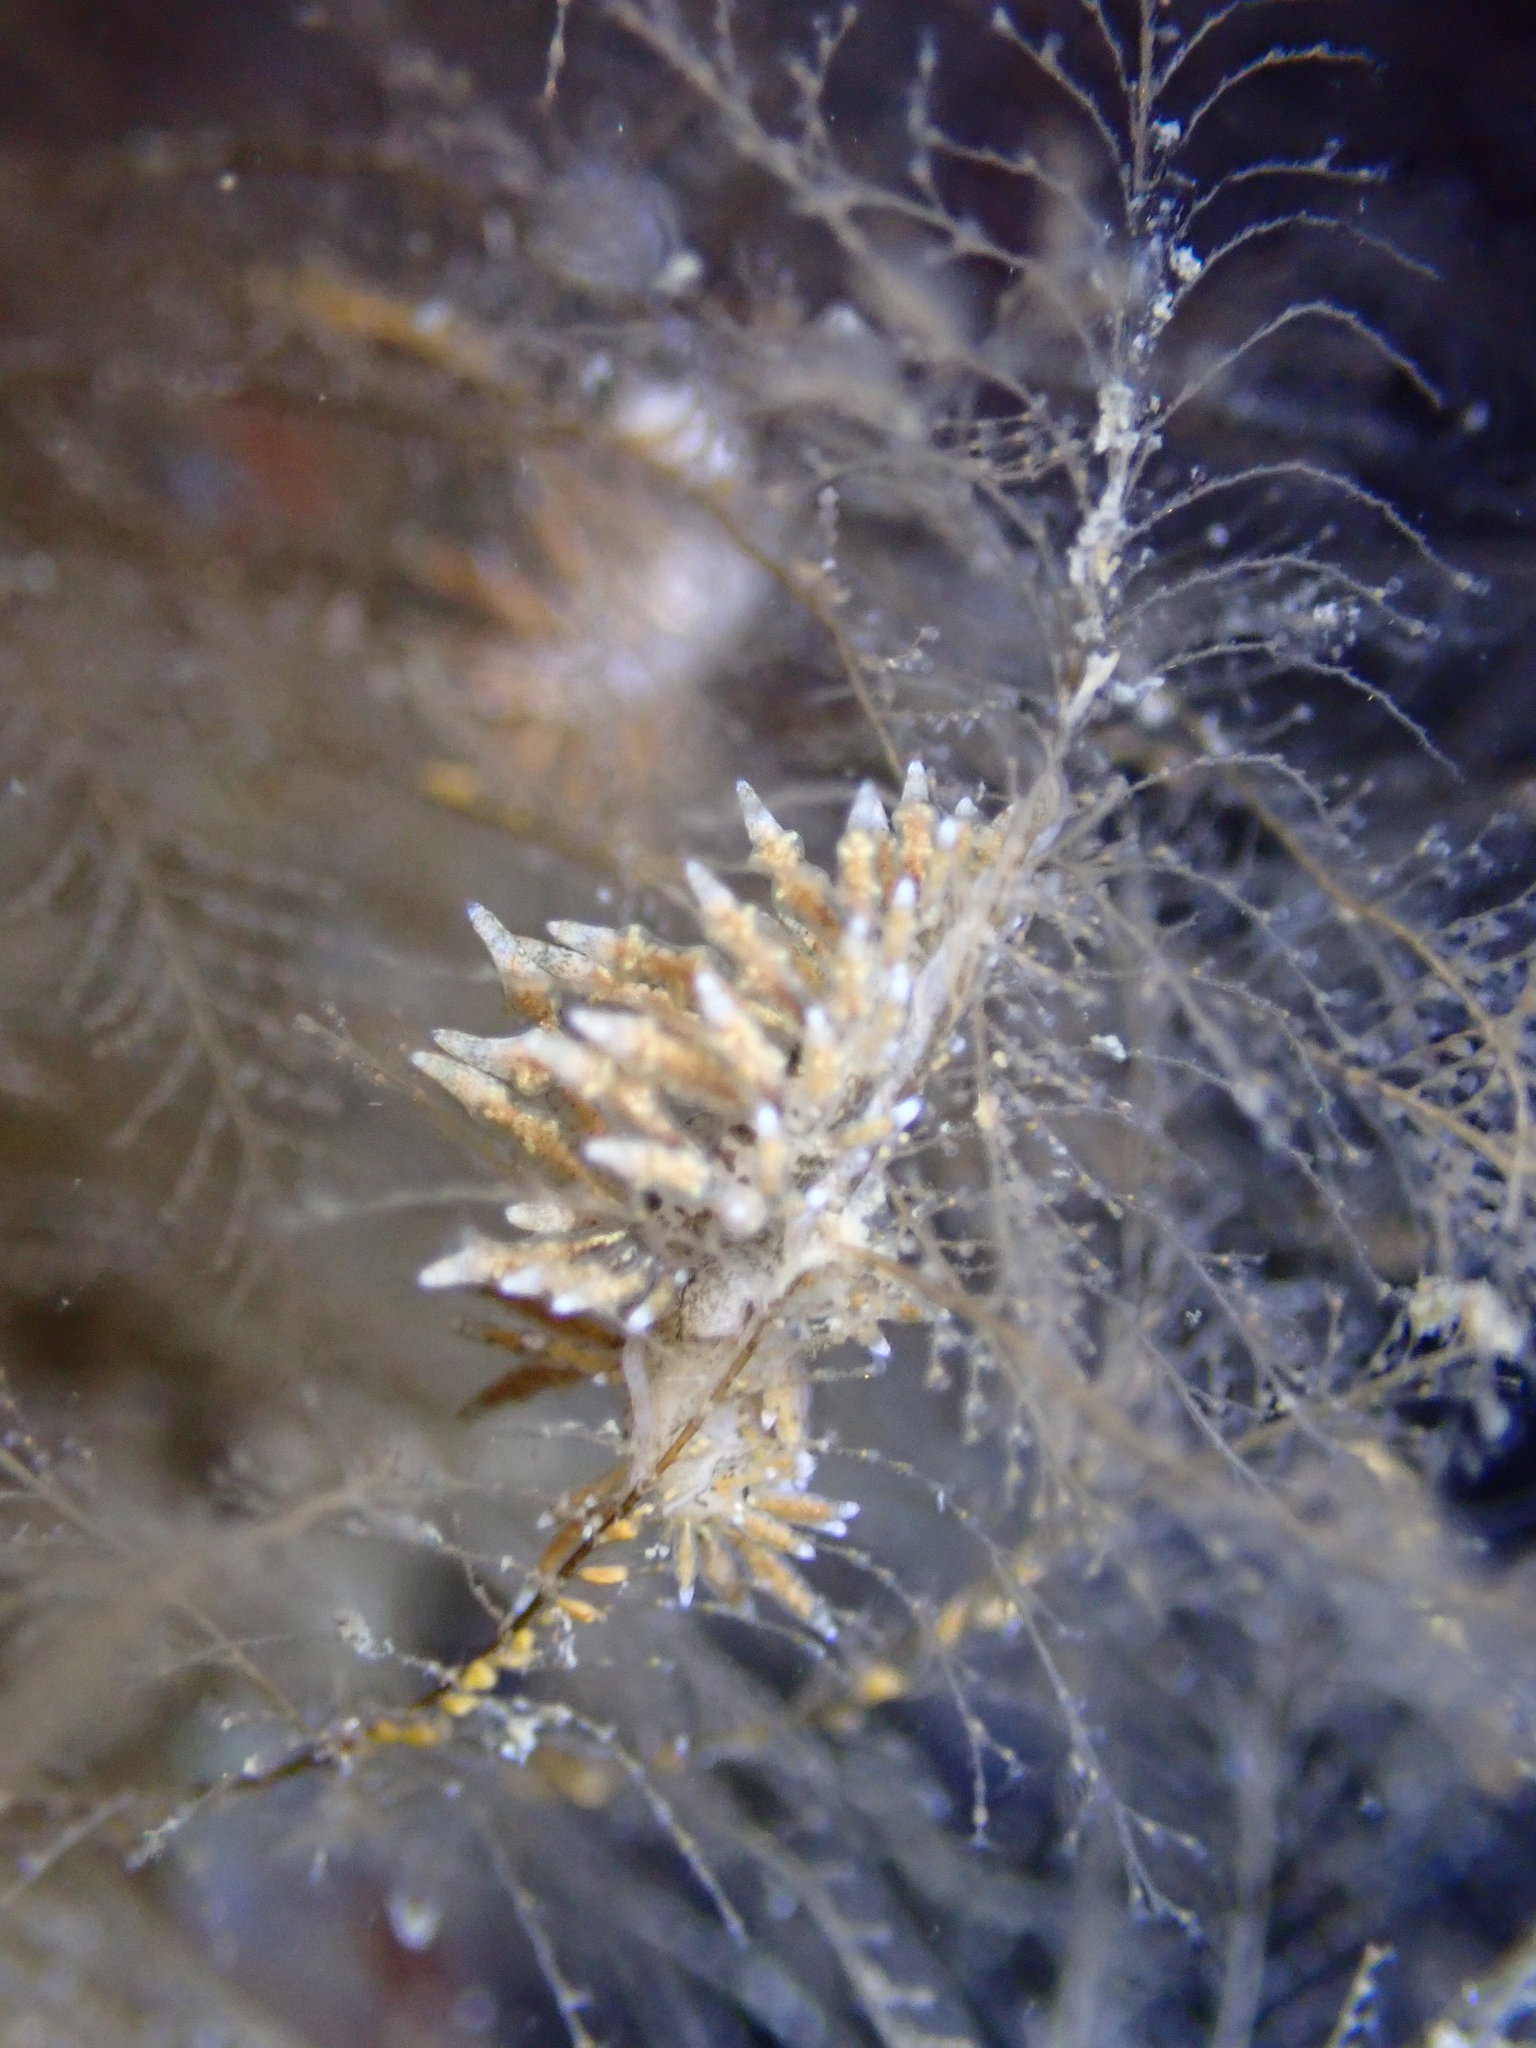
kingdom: Animalia
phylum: Mollusca
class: Gastropoda
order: Nudibranchia
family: Eubranchidae
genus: Eubranchus
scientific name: Eubranchus rustyus
